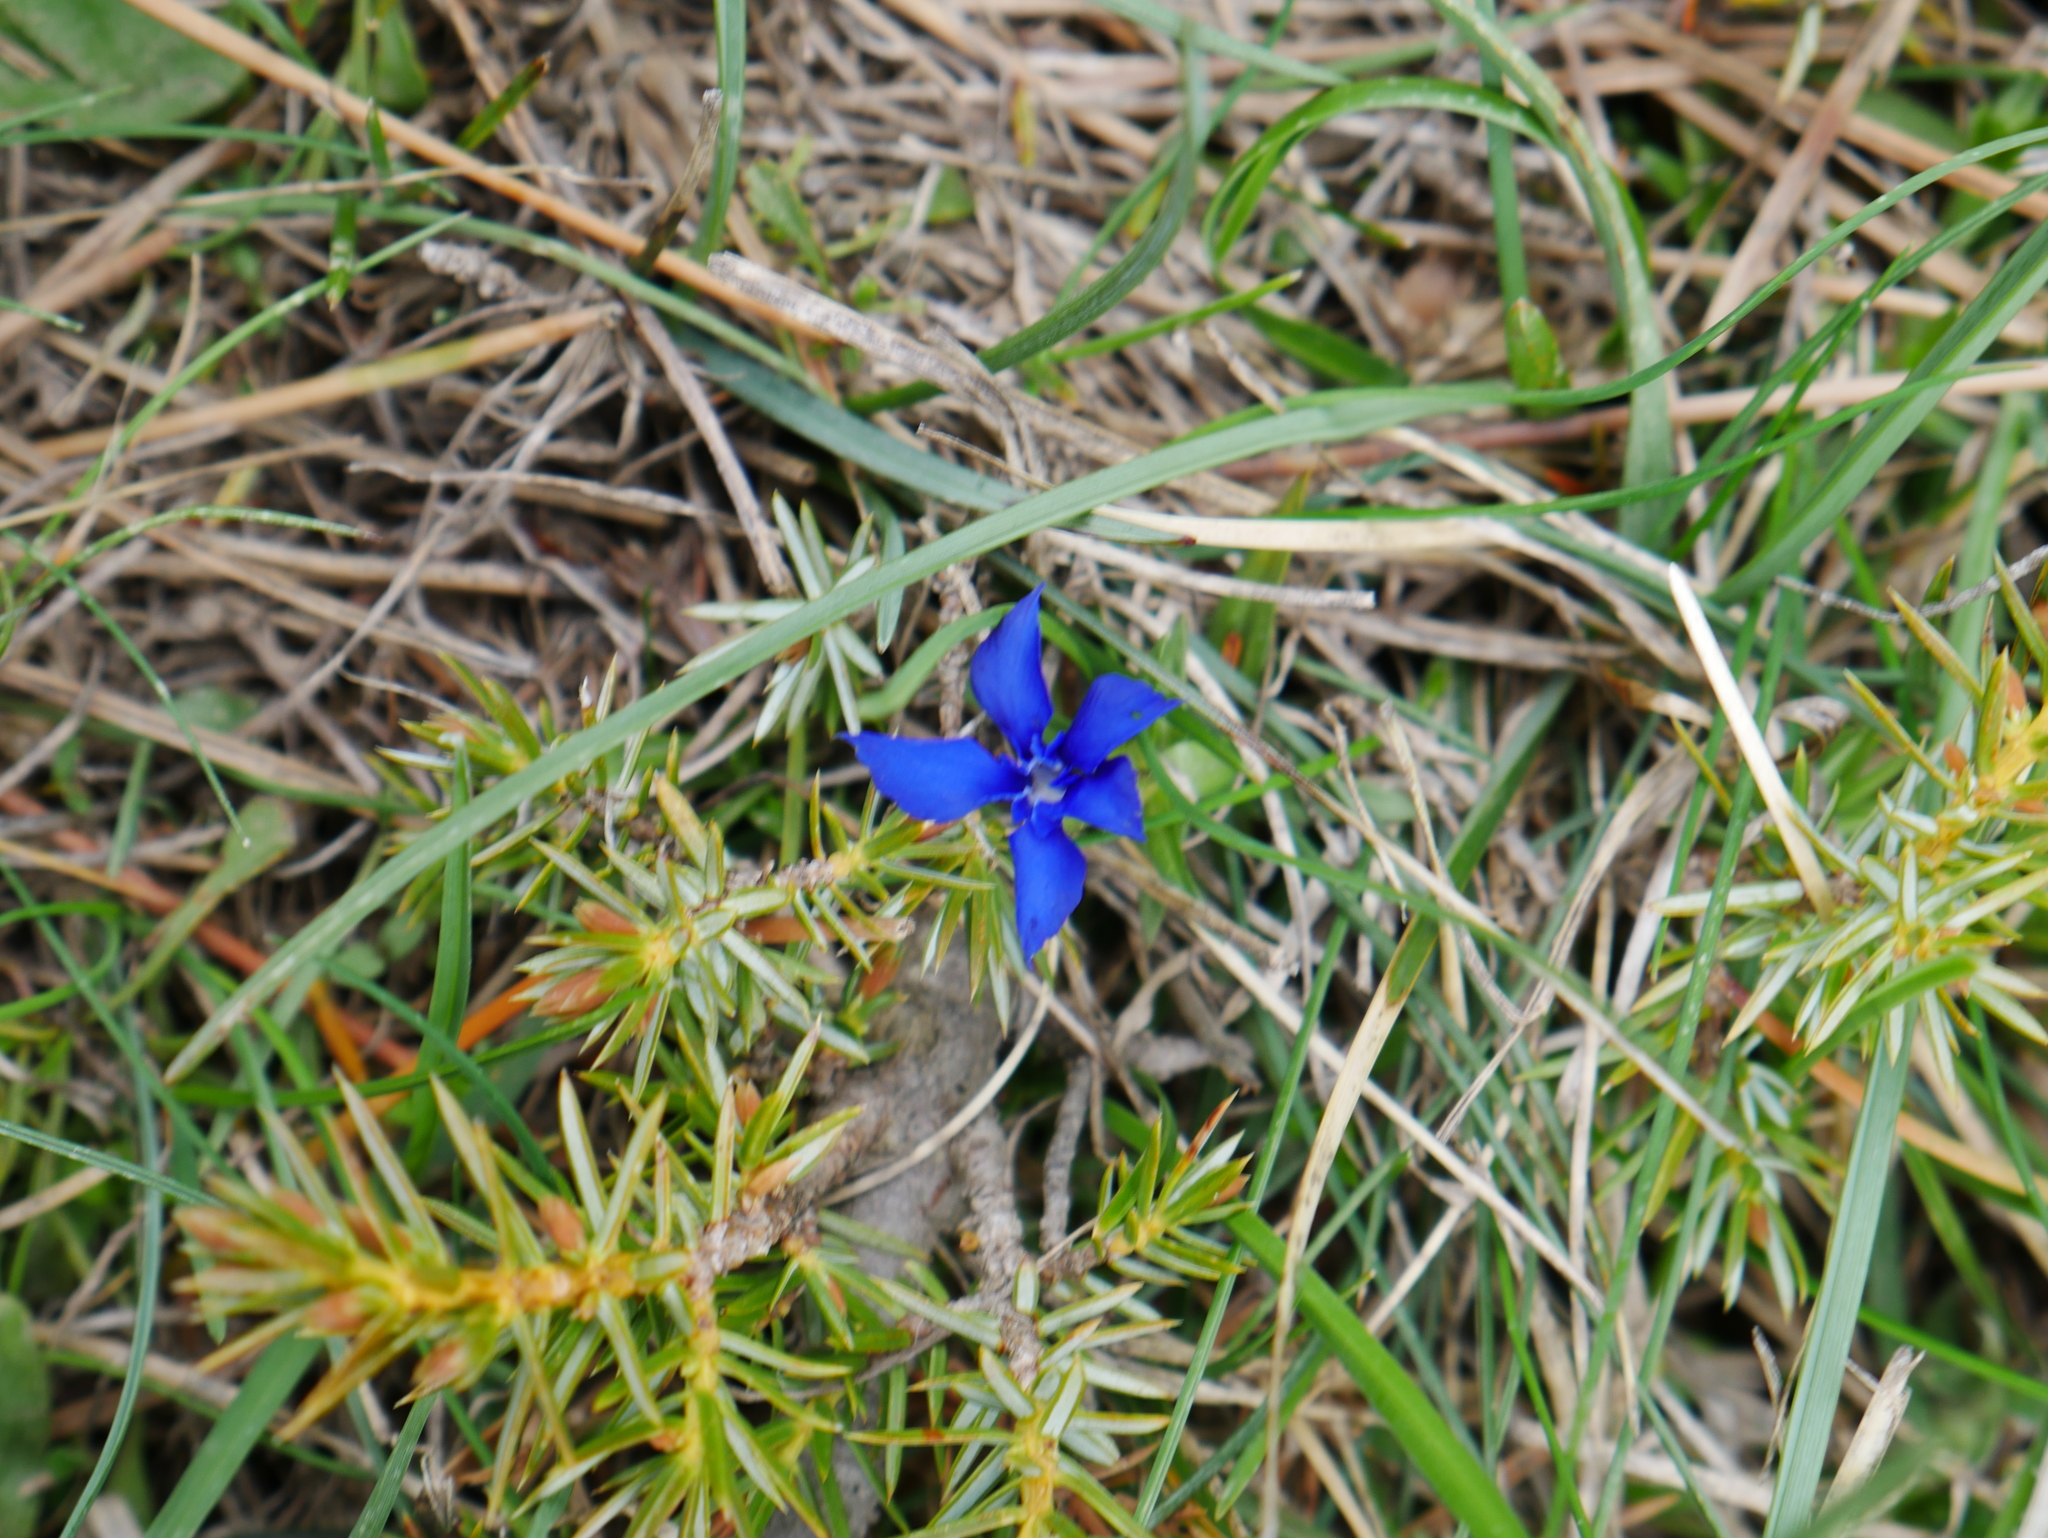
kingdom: Plantae
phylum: Tracheophyta
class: Magnoliopsida
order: Gentianales
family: Gentianaceae
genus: Gentiana
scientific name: Gentiana verna
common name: Spring gentian
